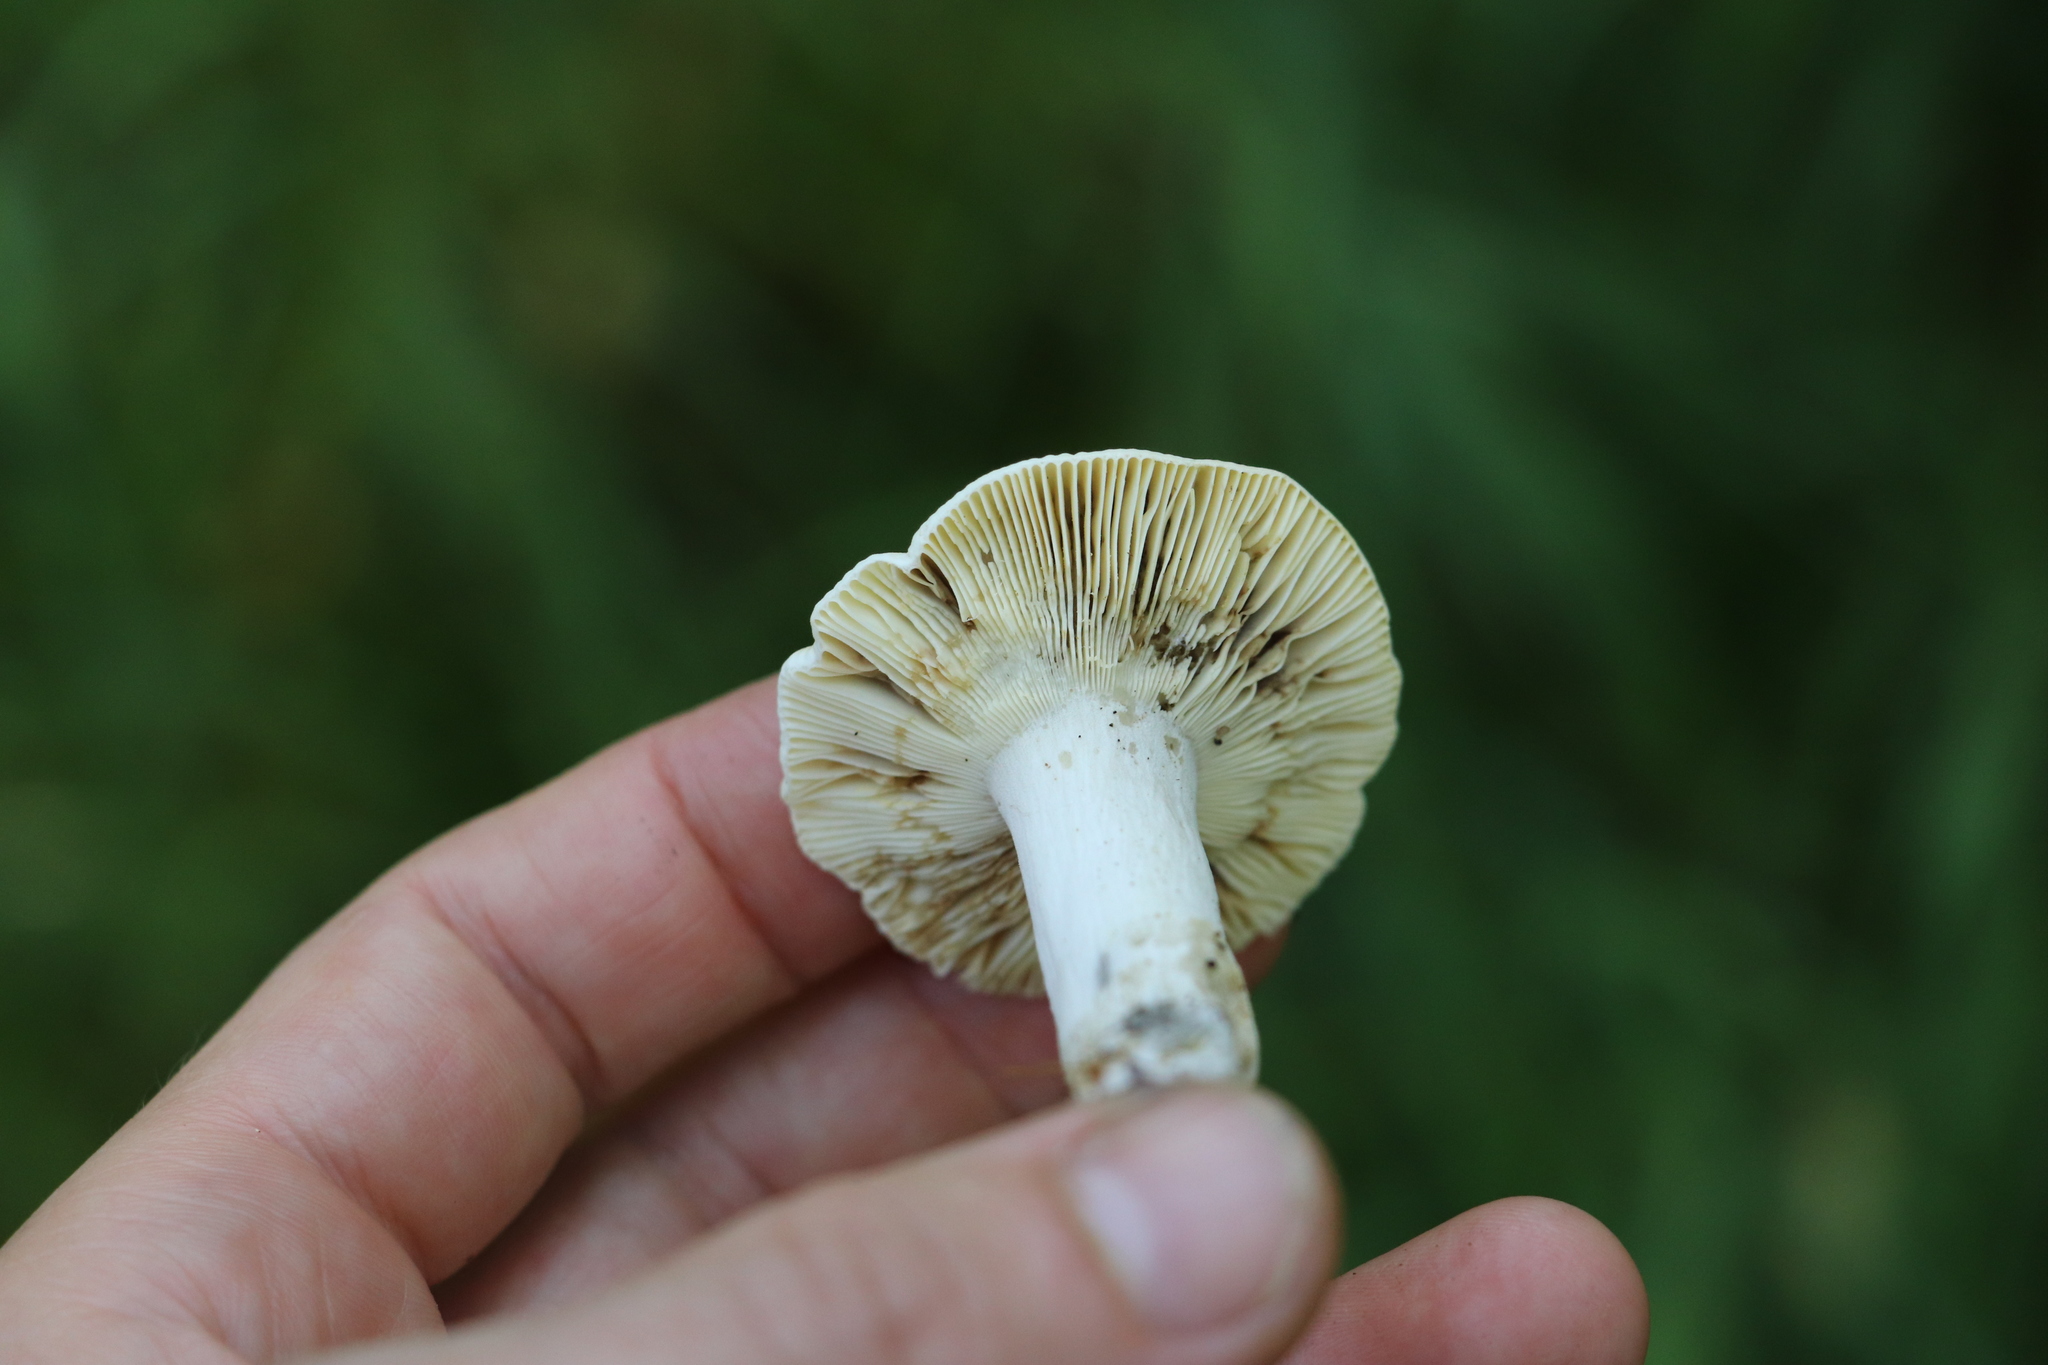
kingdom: Fungi
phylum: Basidiomycota
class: Agaricomycetes
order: Russulales
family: Russulaceae
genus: Russula
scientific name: Russula claroflava
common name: The yellow swamp brittlegill
